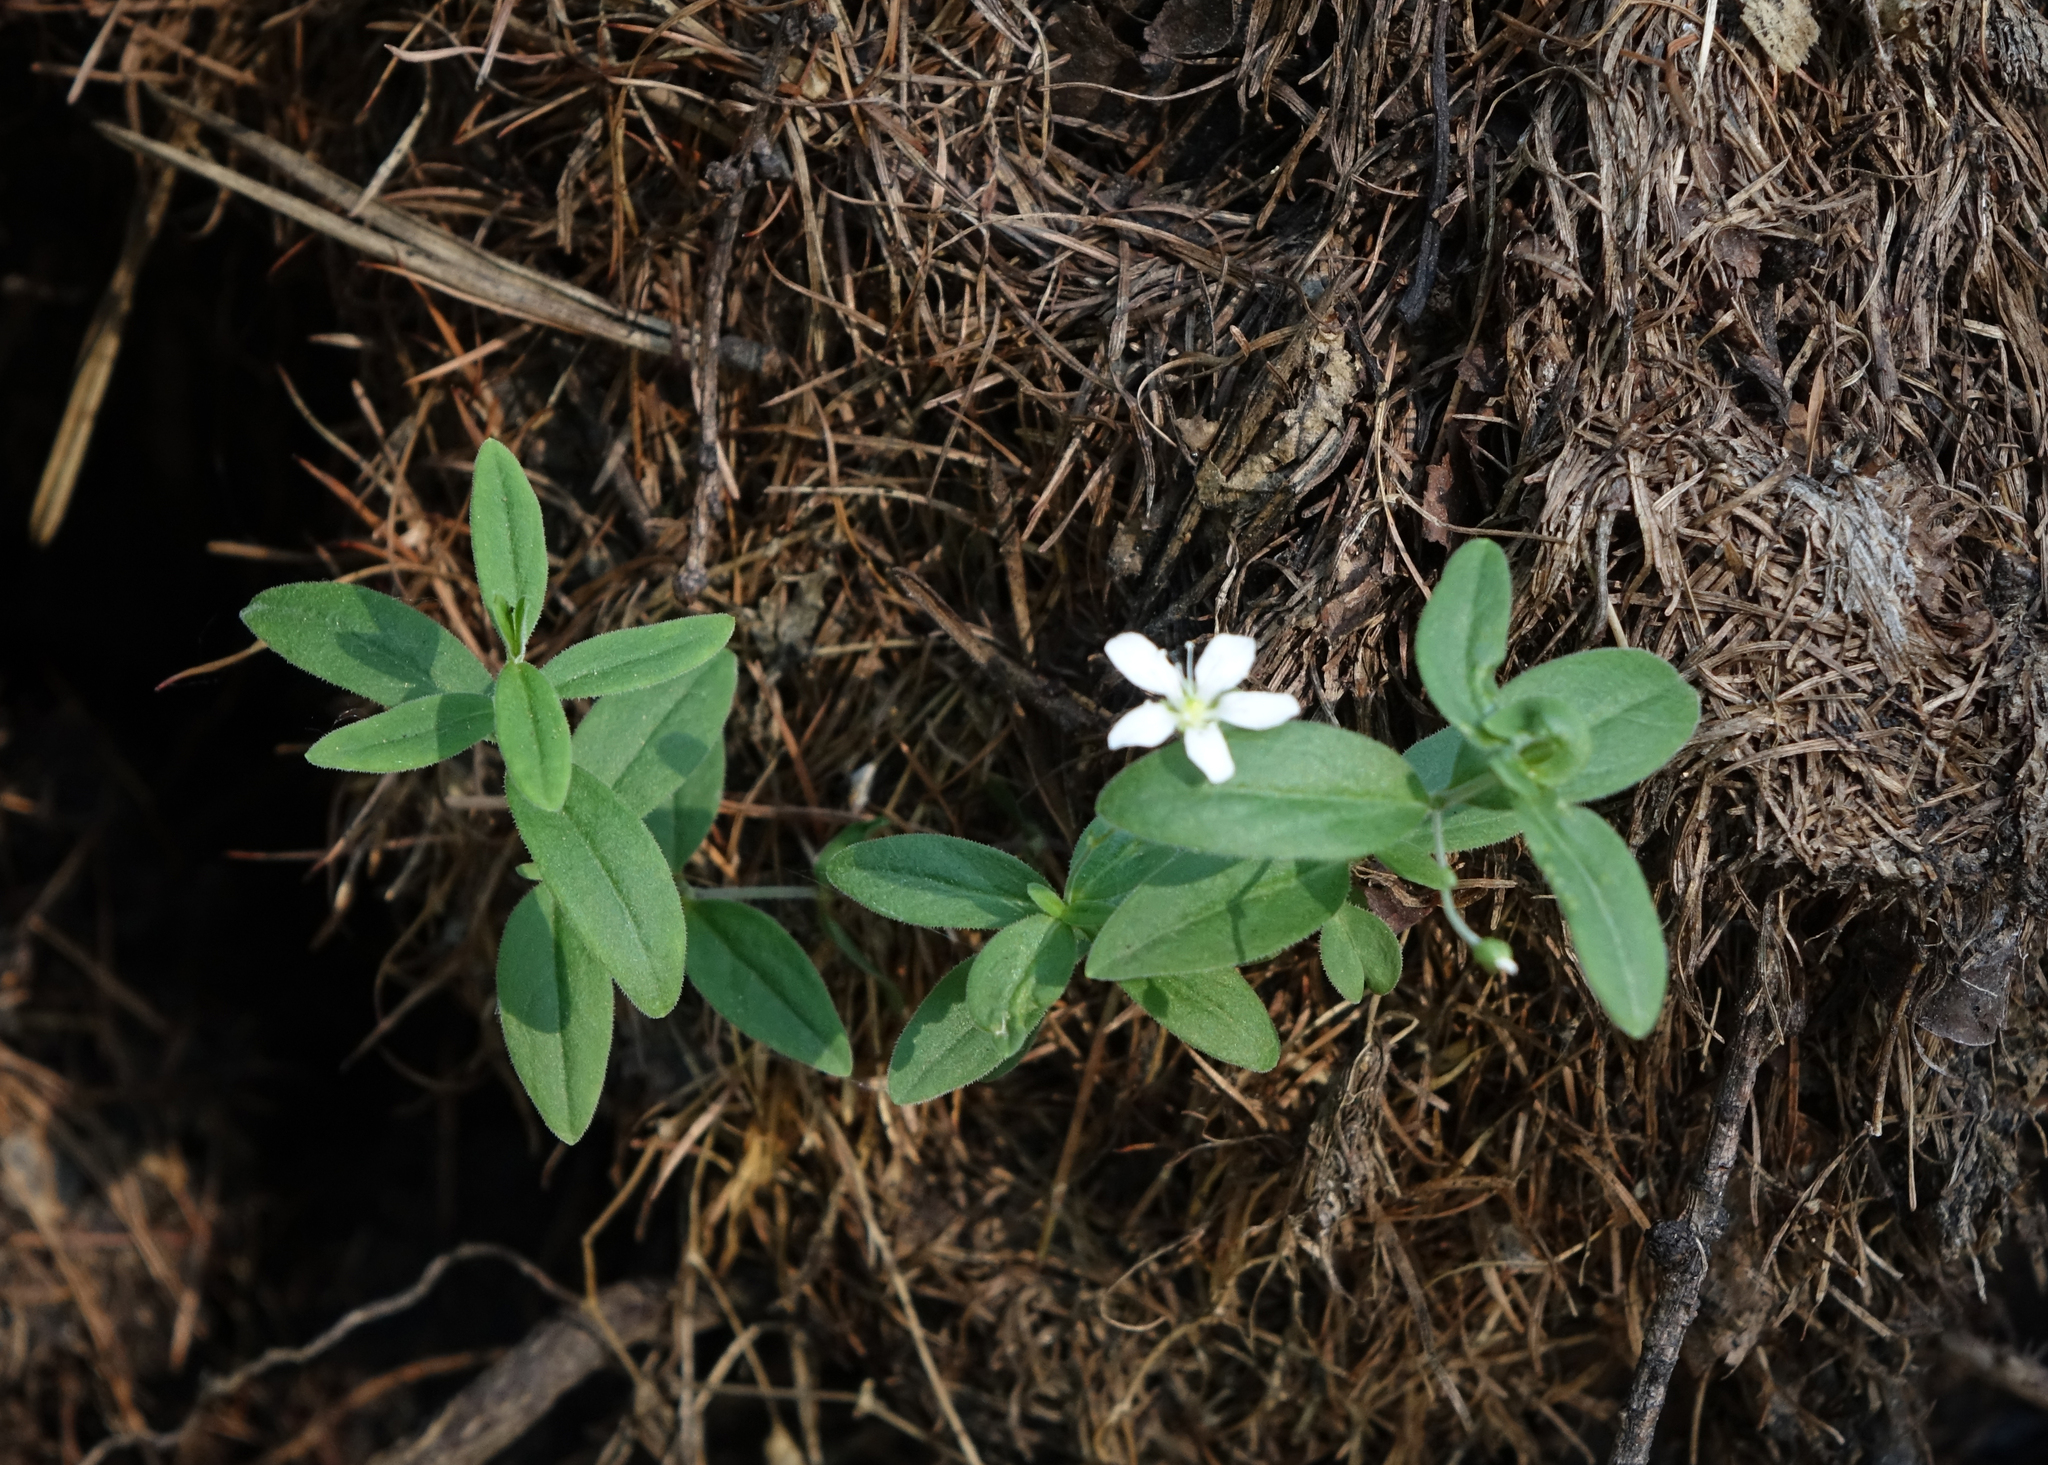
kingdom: Plantae
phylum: Tracheophyta
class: Magnoliopsida
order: Caryophyllales
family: Caryophyllaceae
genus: Moehringia
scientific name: Moehringia lateriflora
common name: Blunt-leaved sandwort
